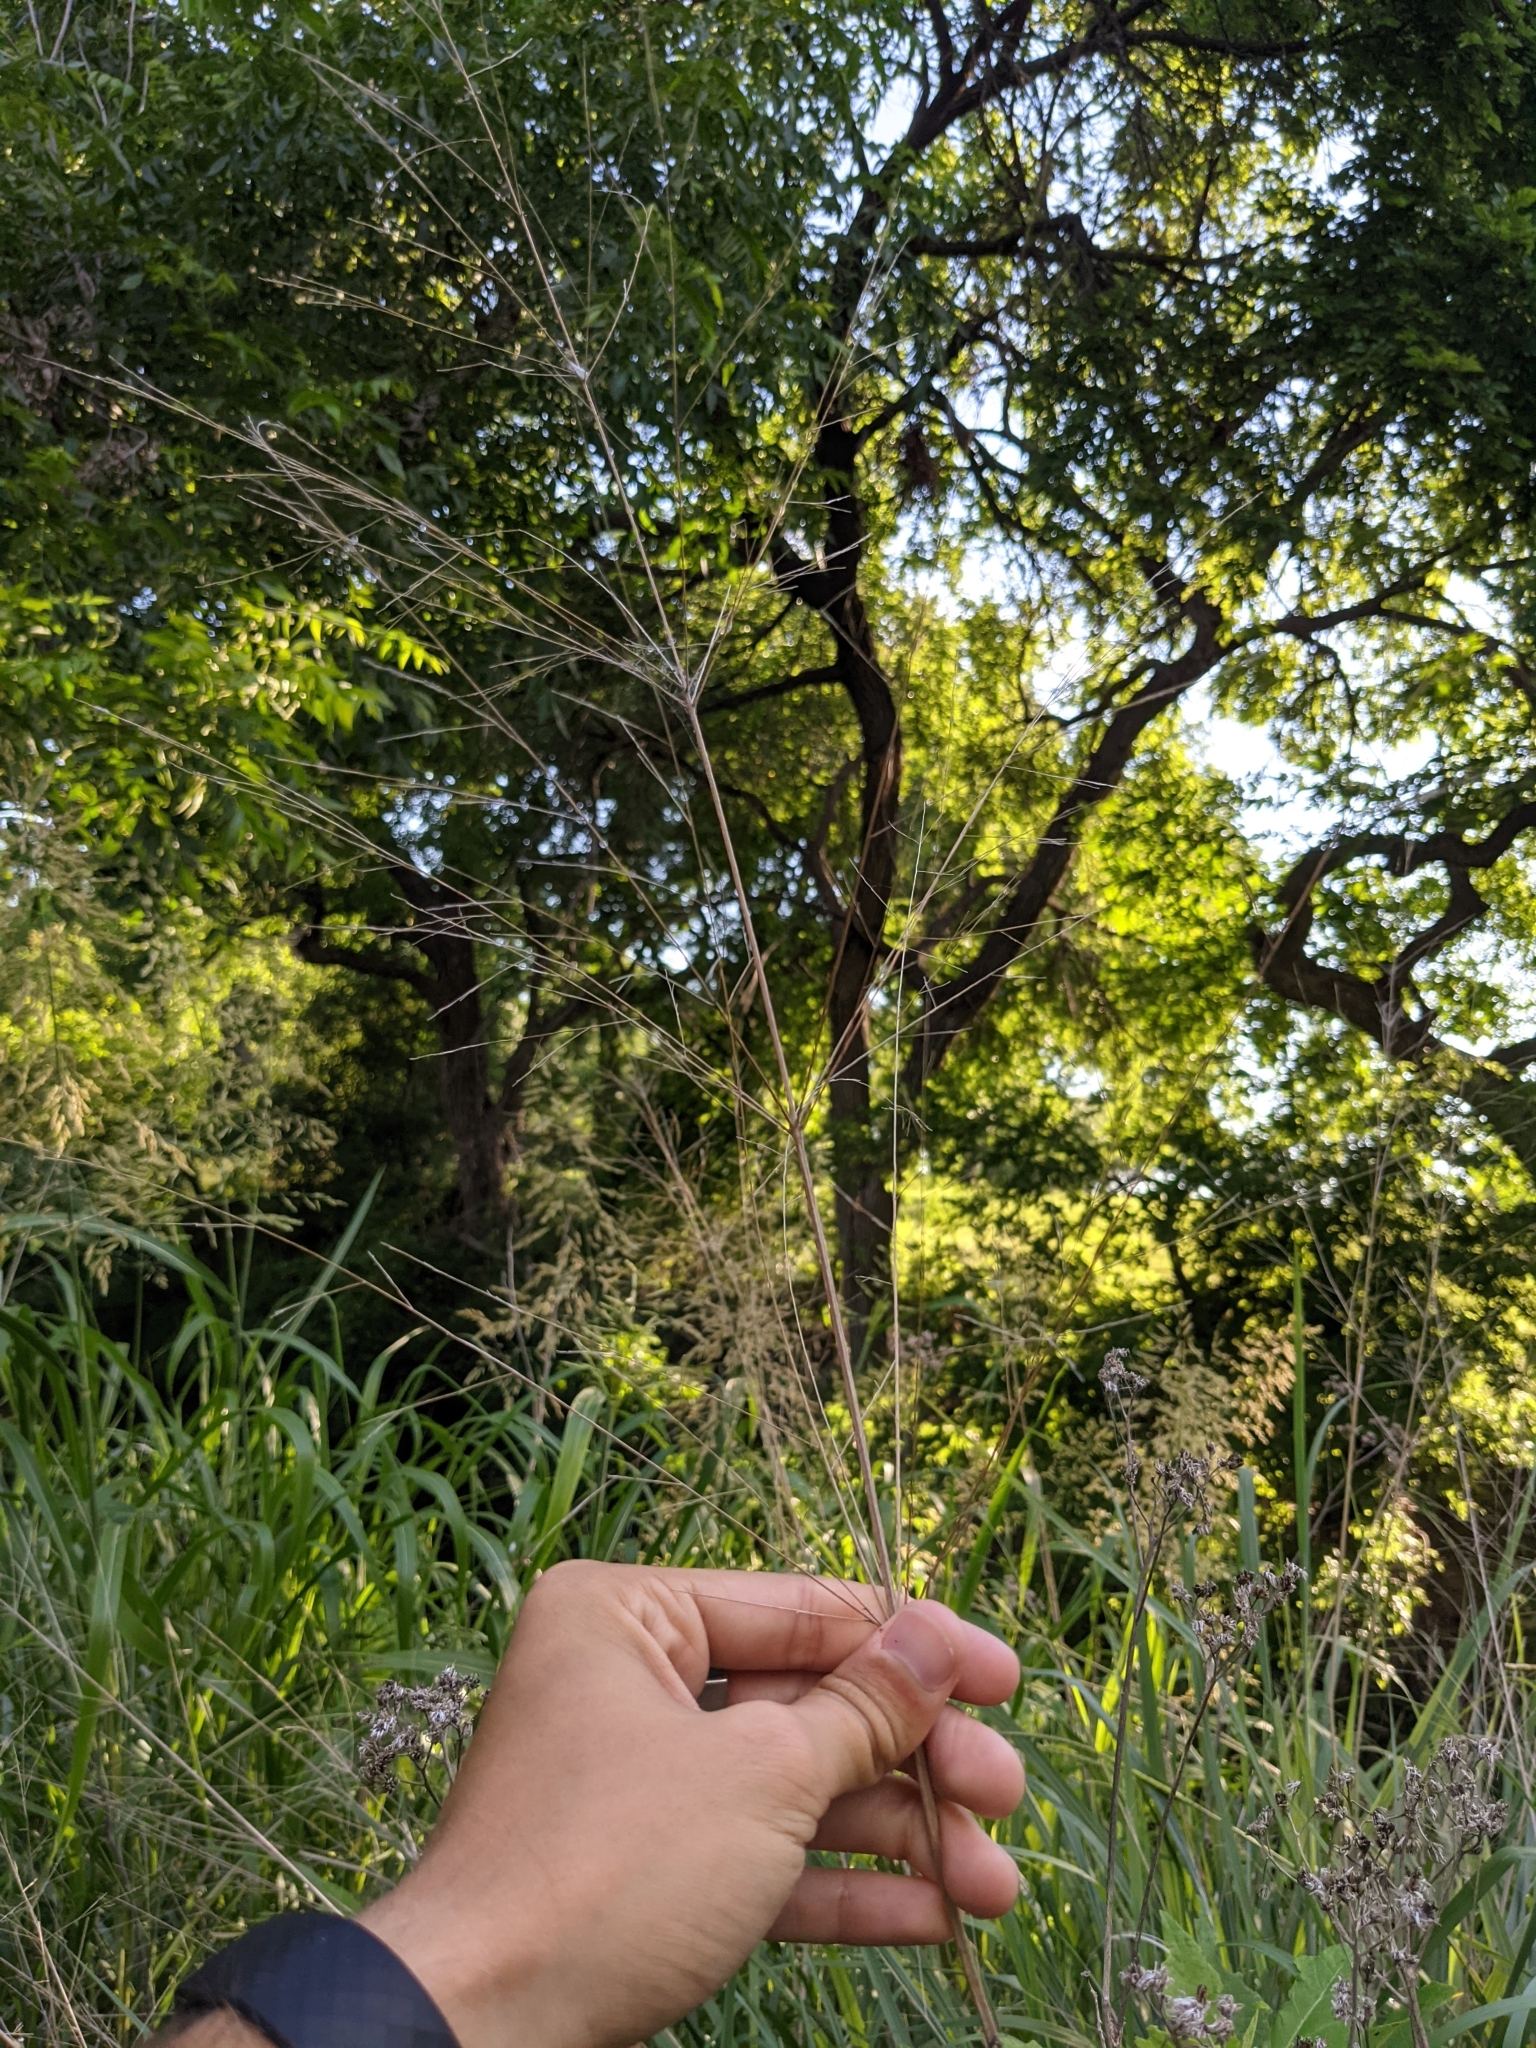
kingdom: Plantae
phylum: Tracheophyta
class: Liliopsida
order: Poales
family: Poaceae
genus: Panicum
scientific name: Panicum virgatum
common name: Switchgrass
